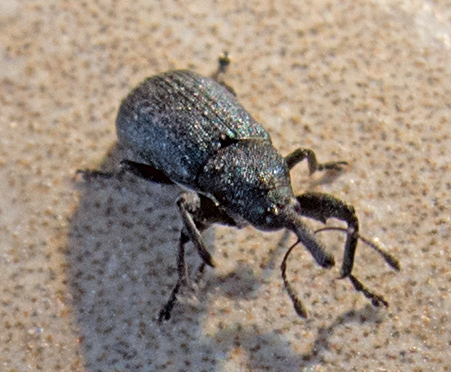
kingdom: Animalia
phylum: Arthropoda
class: Insecta
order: Coleoptera
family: Curculionidae
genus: Magdalis
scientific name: Magdalis phlegmatica
